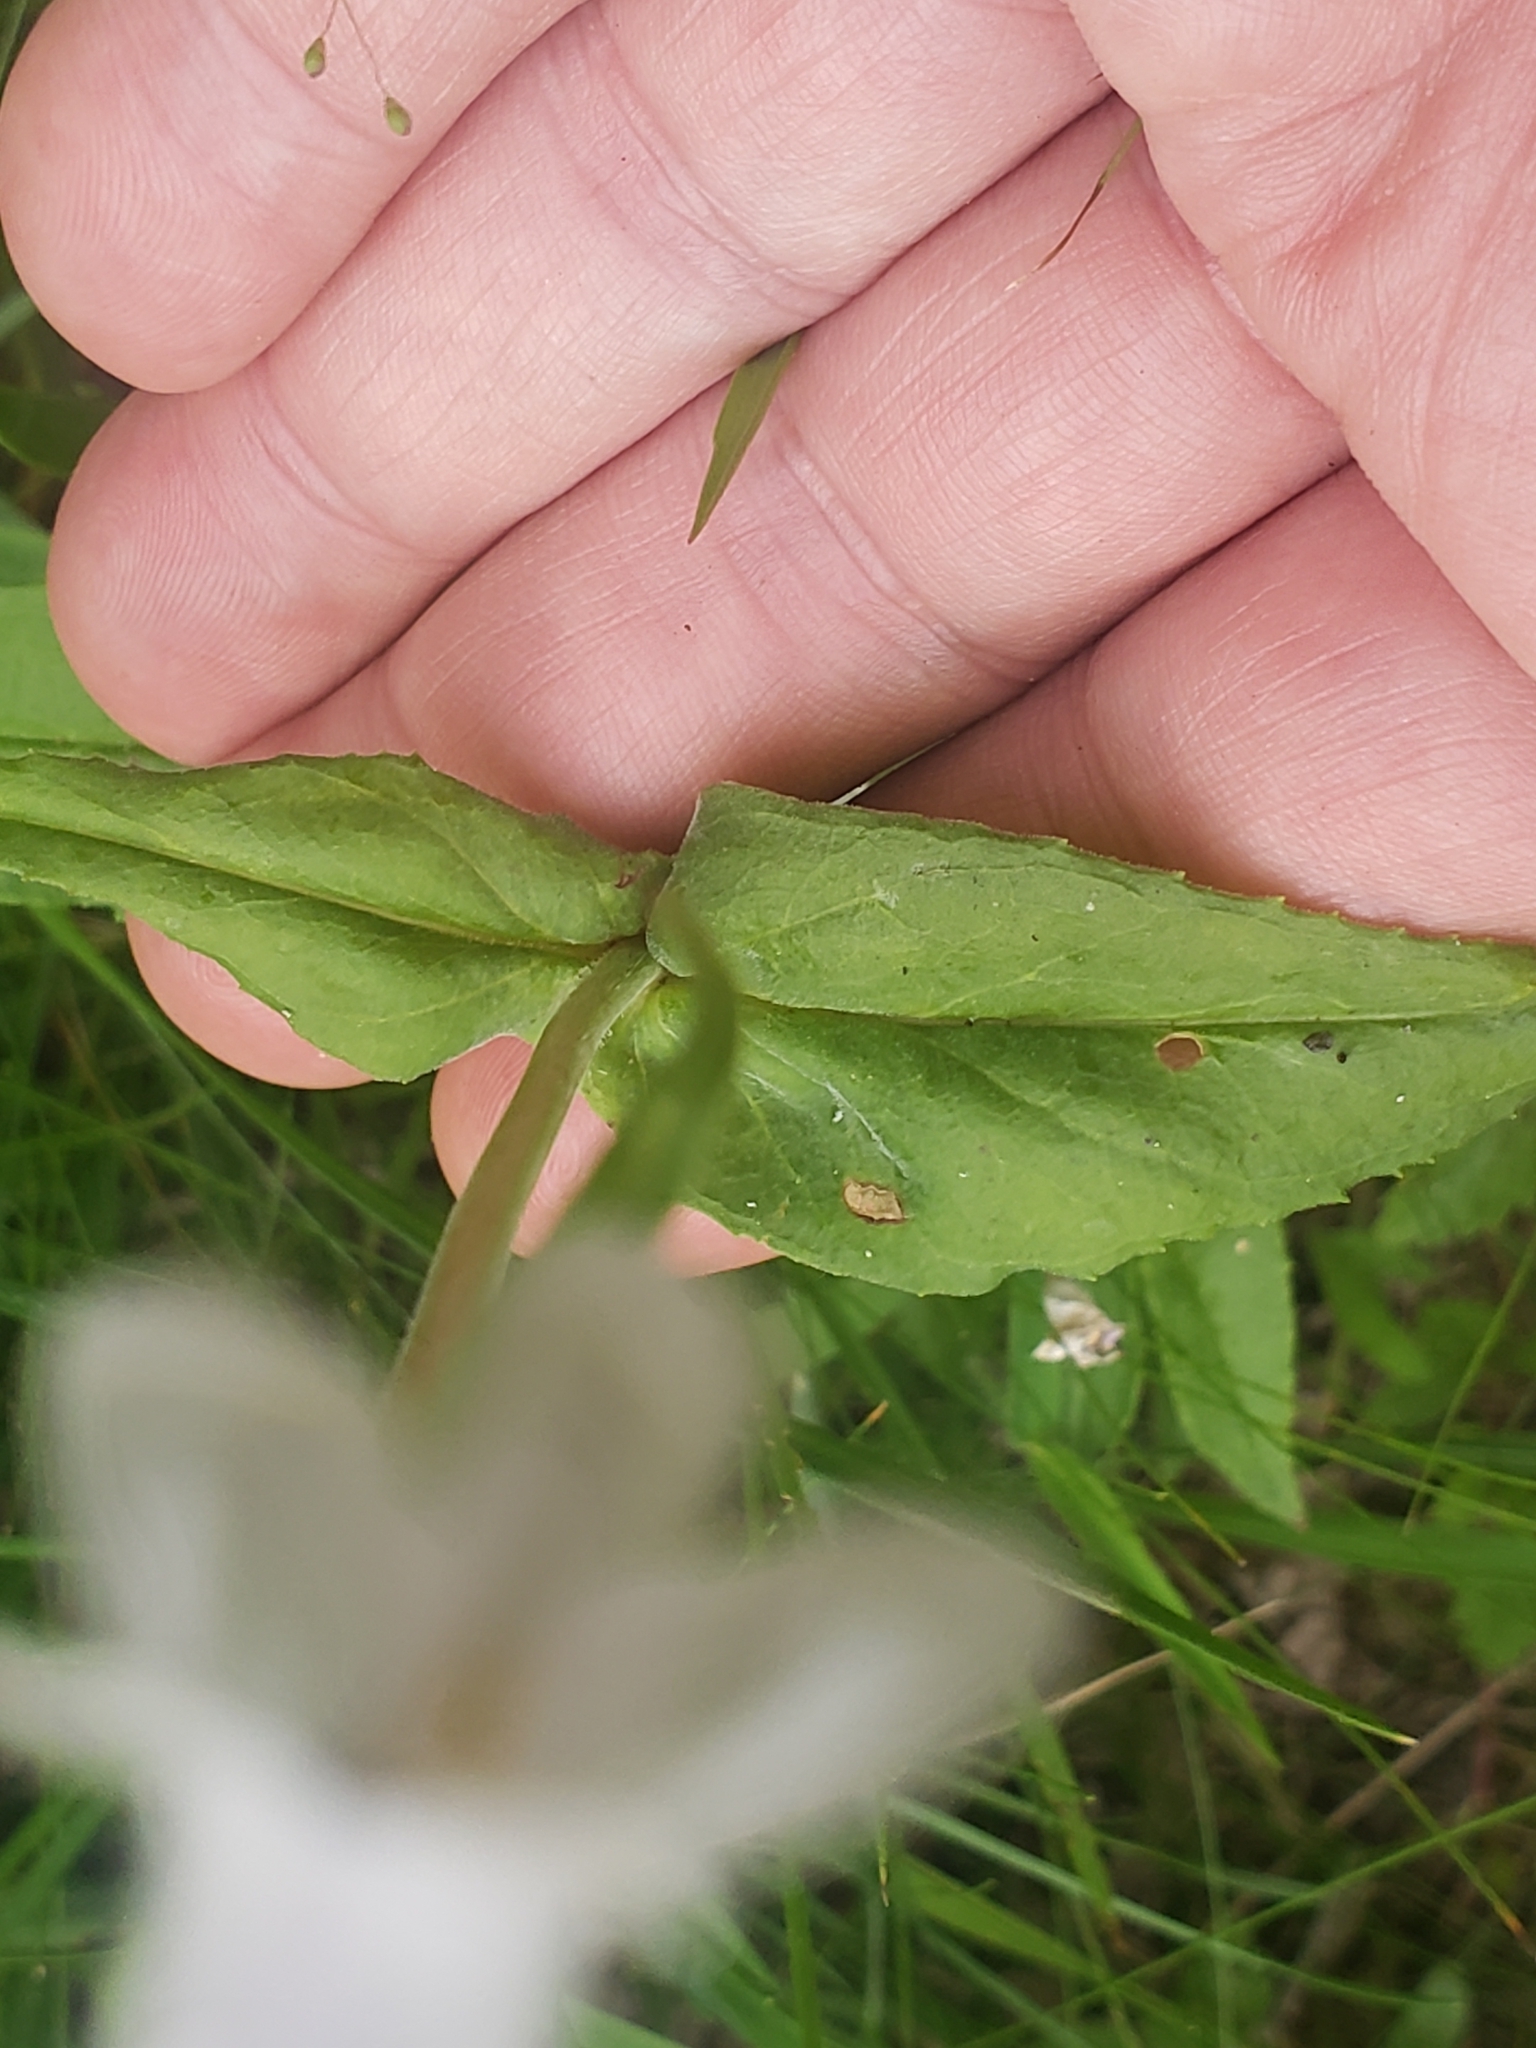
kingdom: Plantae
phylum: Tracheophyta
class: Magnoliopsida
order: Lamiales
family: Plantaginaceae
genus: Penstemon
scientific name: Penstemon digitalis
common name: Foxglove beardtongue
